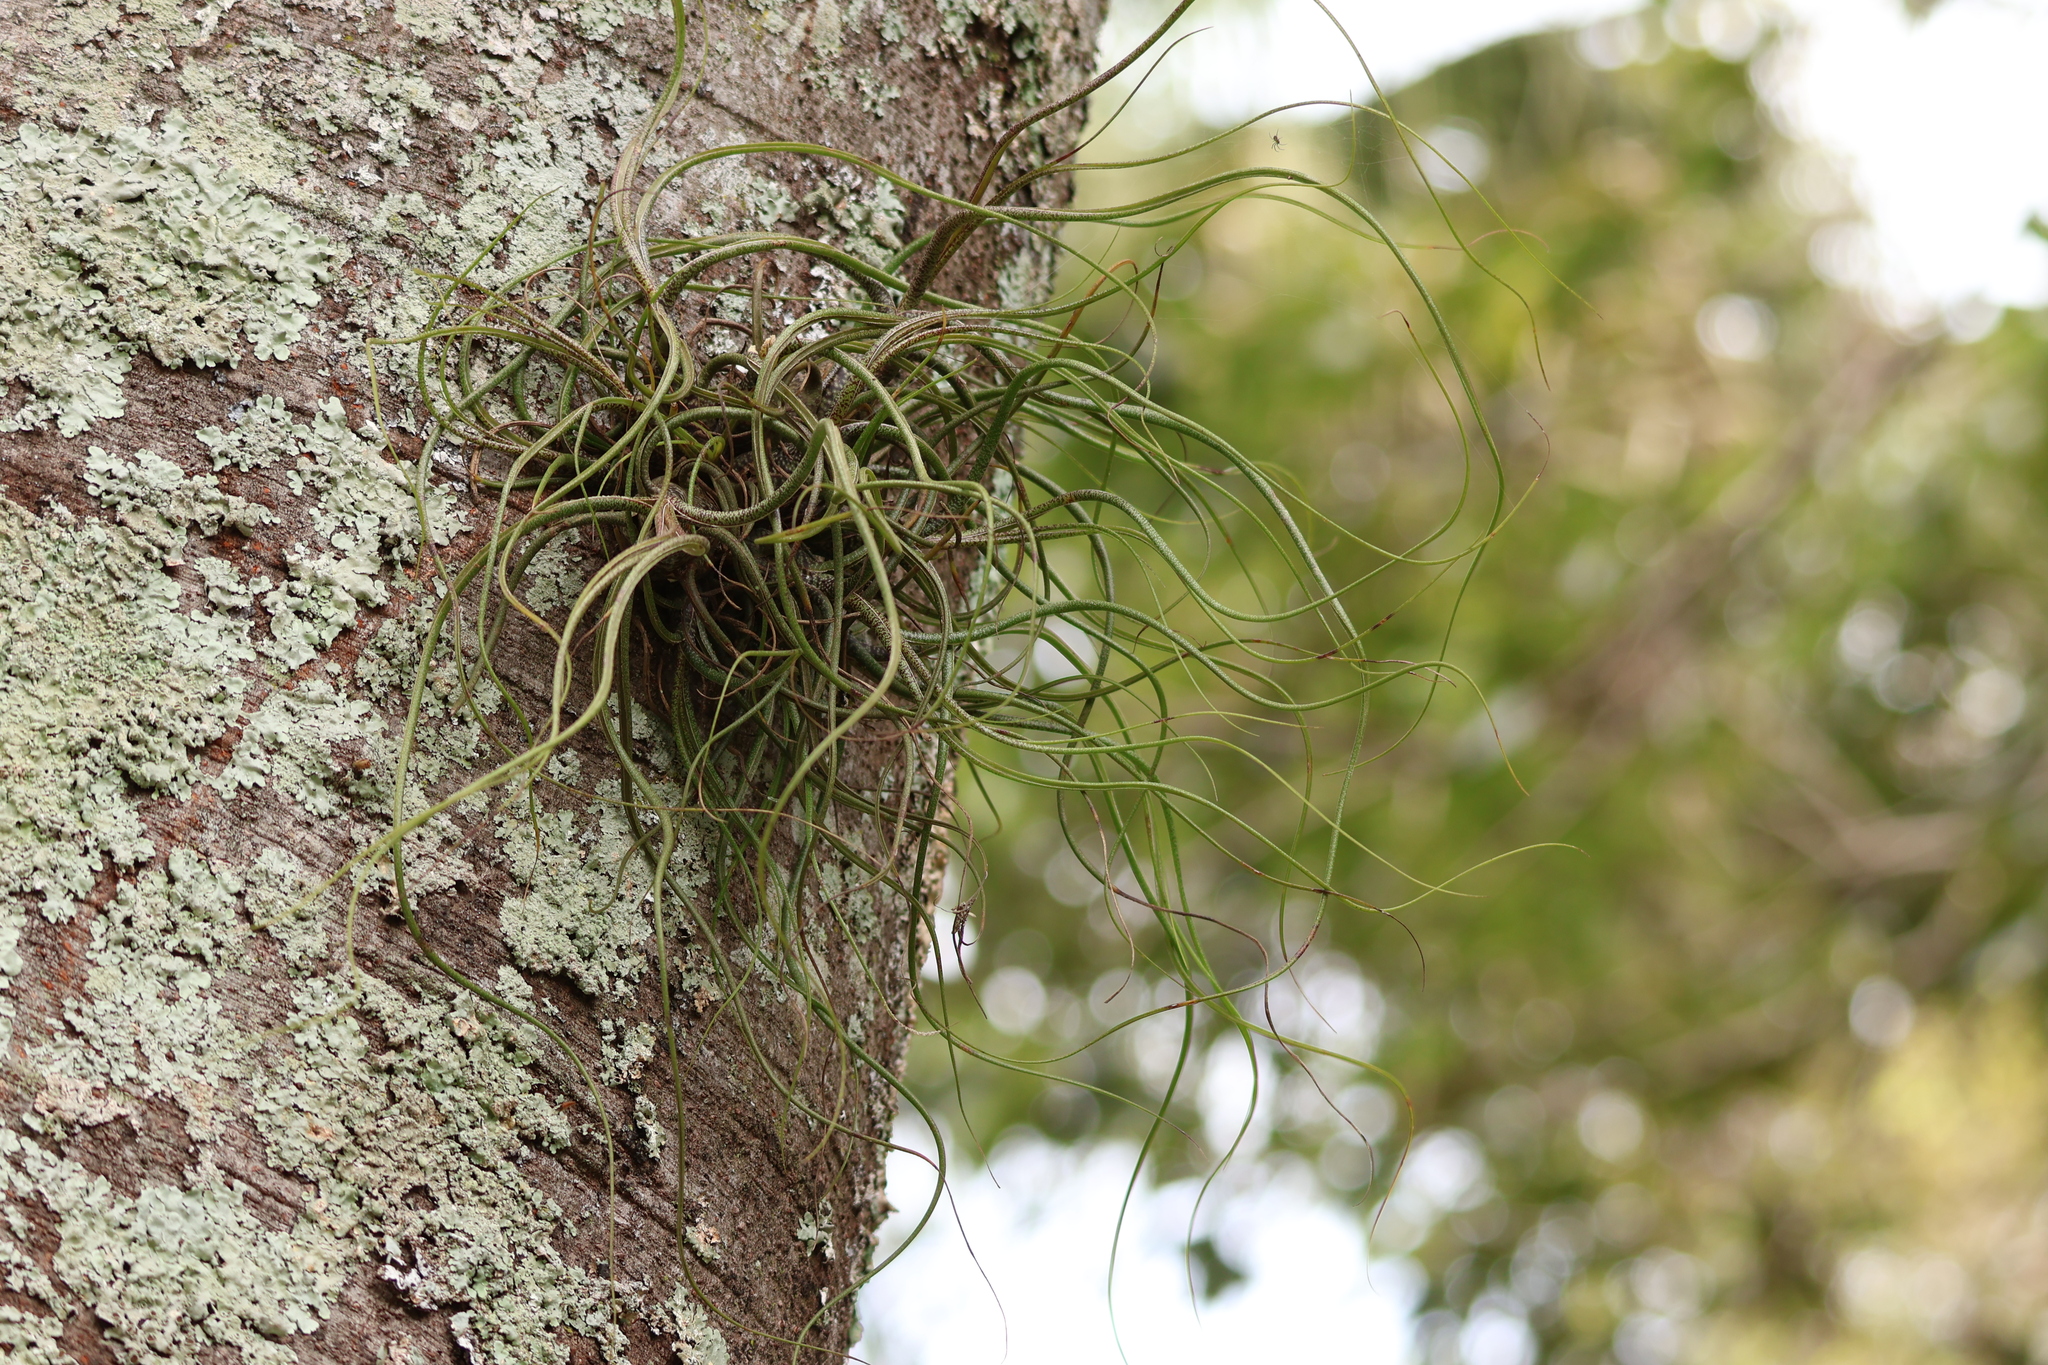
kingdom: Plantae
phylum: Tracheophyta
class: Liliopsida
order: Poales
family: Bromeliaceae
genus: Tillandsia
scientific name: Tillandsia butzii
